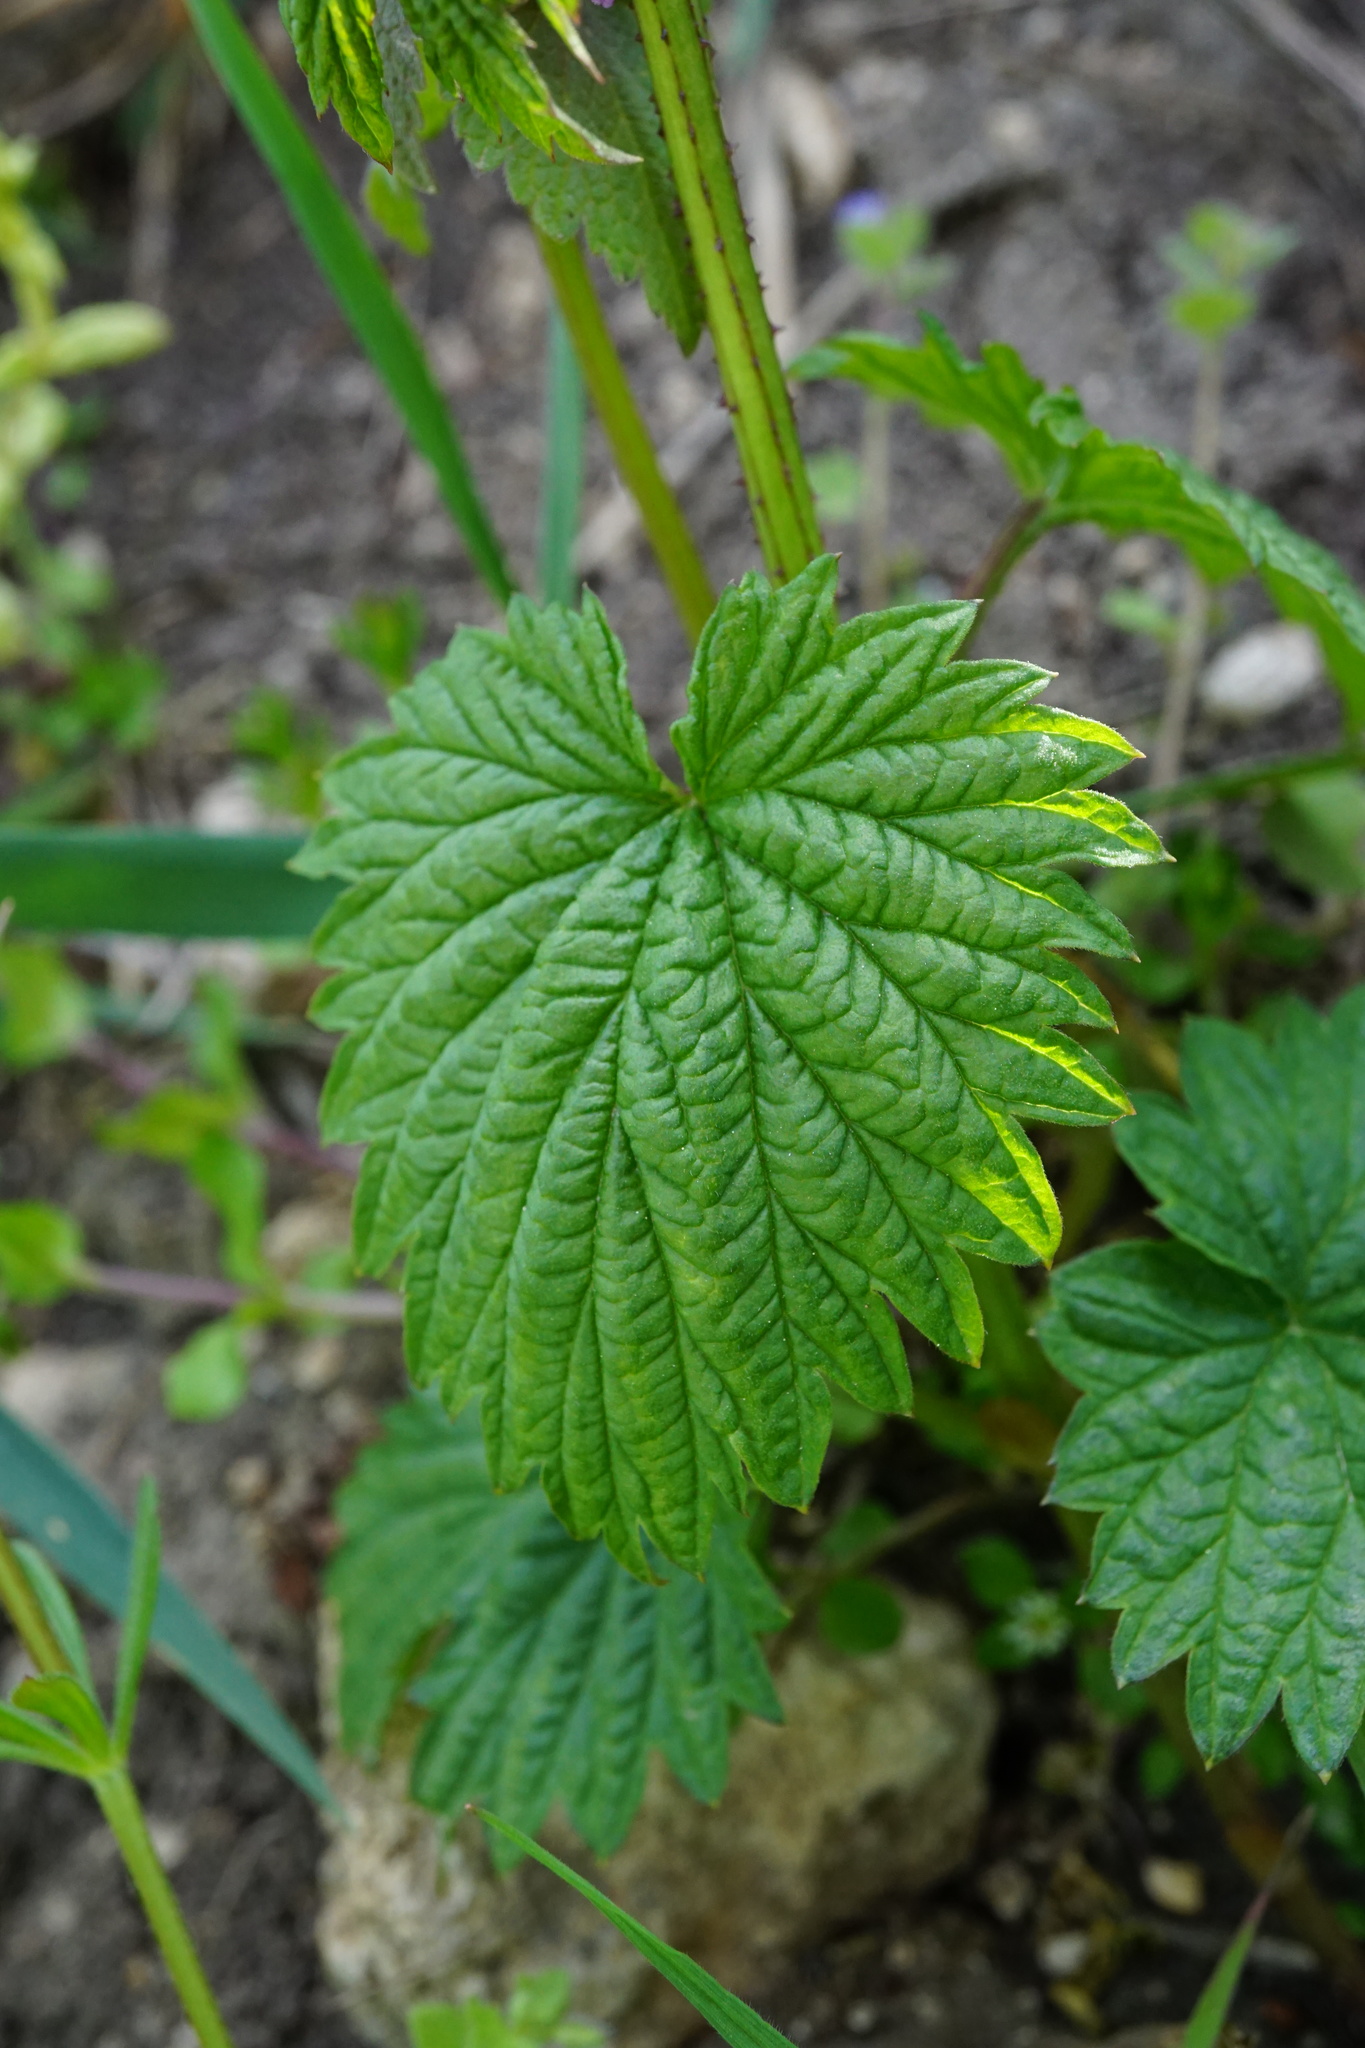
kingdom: Plantae
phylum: Tracheophyta
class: Magnoliopsida
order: Rosales
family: Cannabaceae
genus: Humulus
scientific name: Humulus lupulus
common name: Hop
